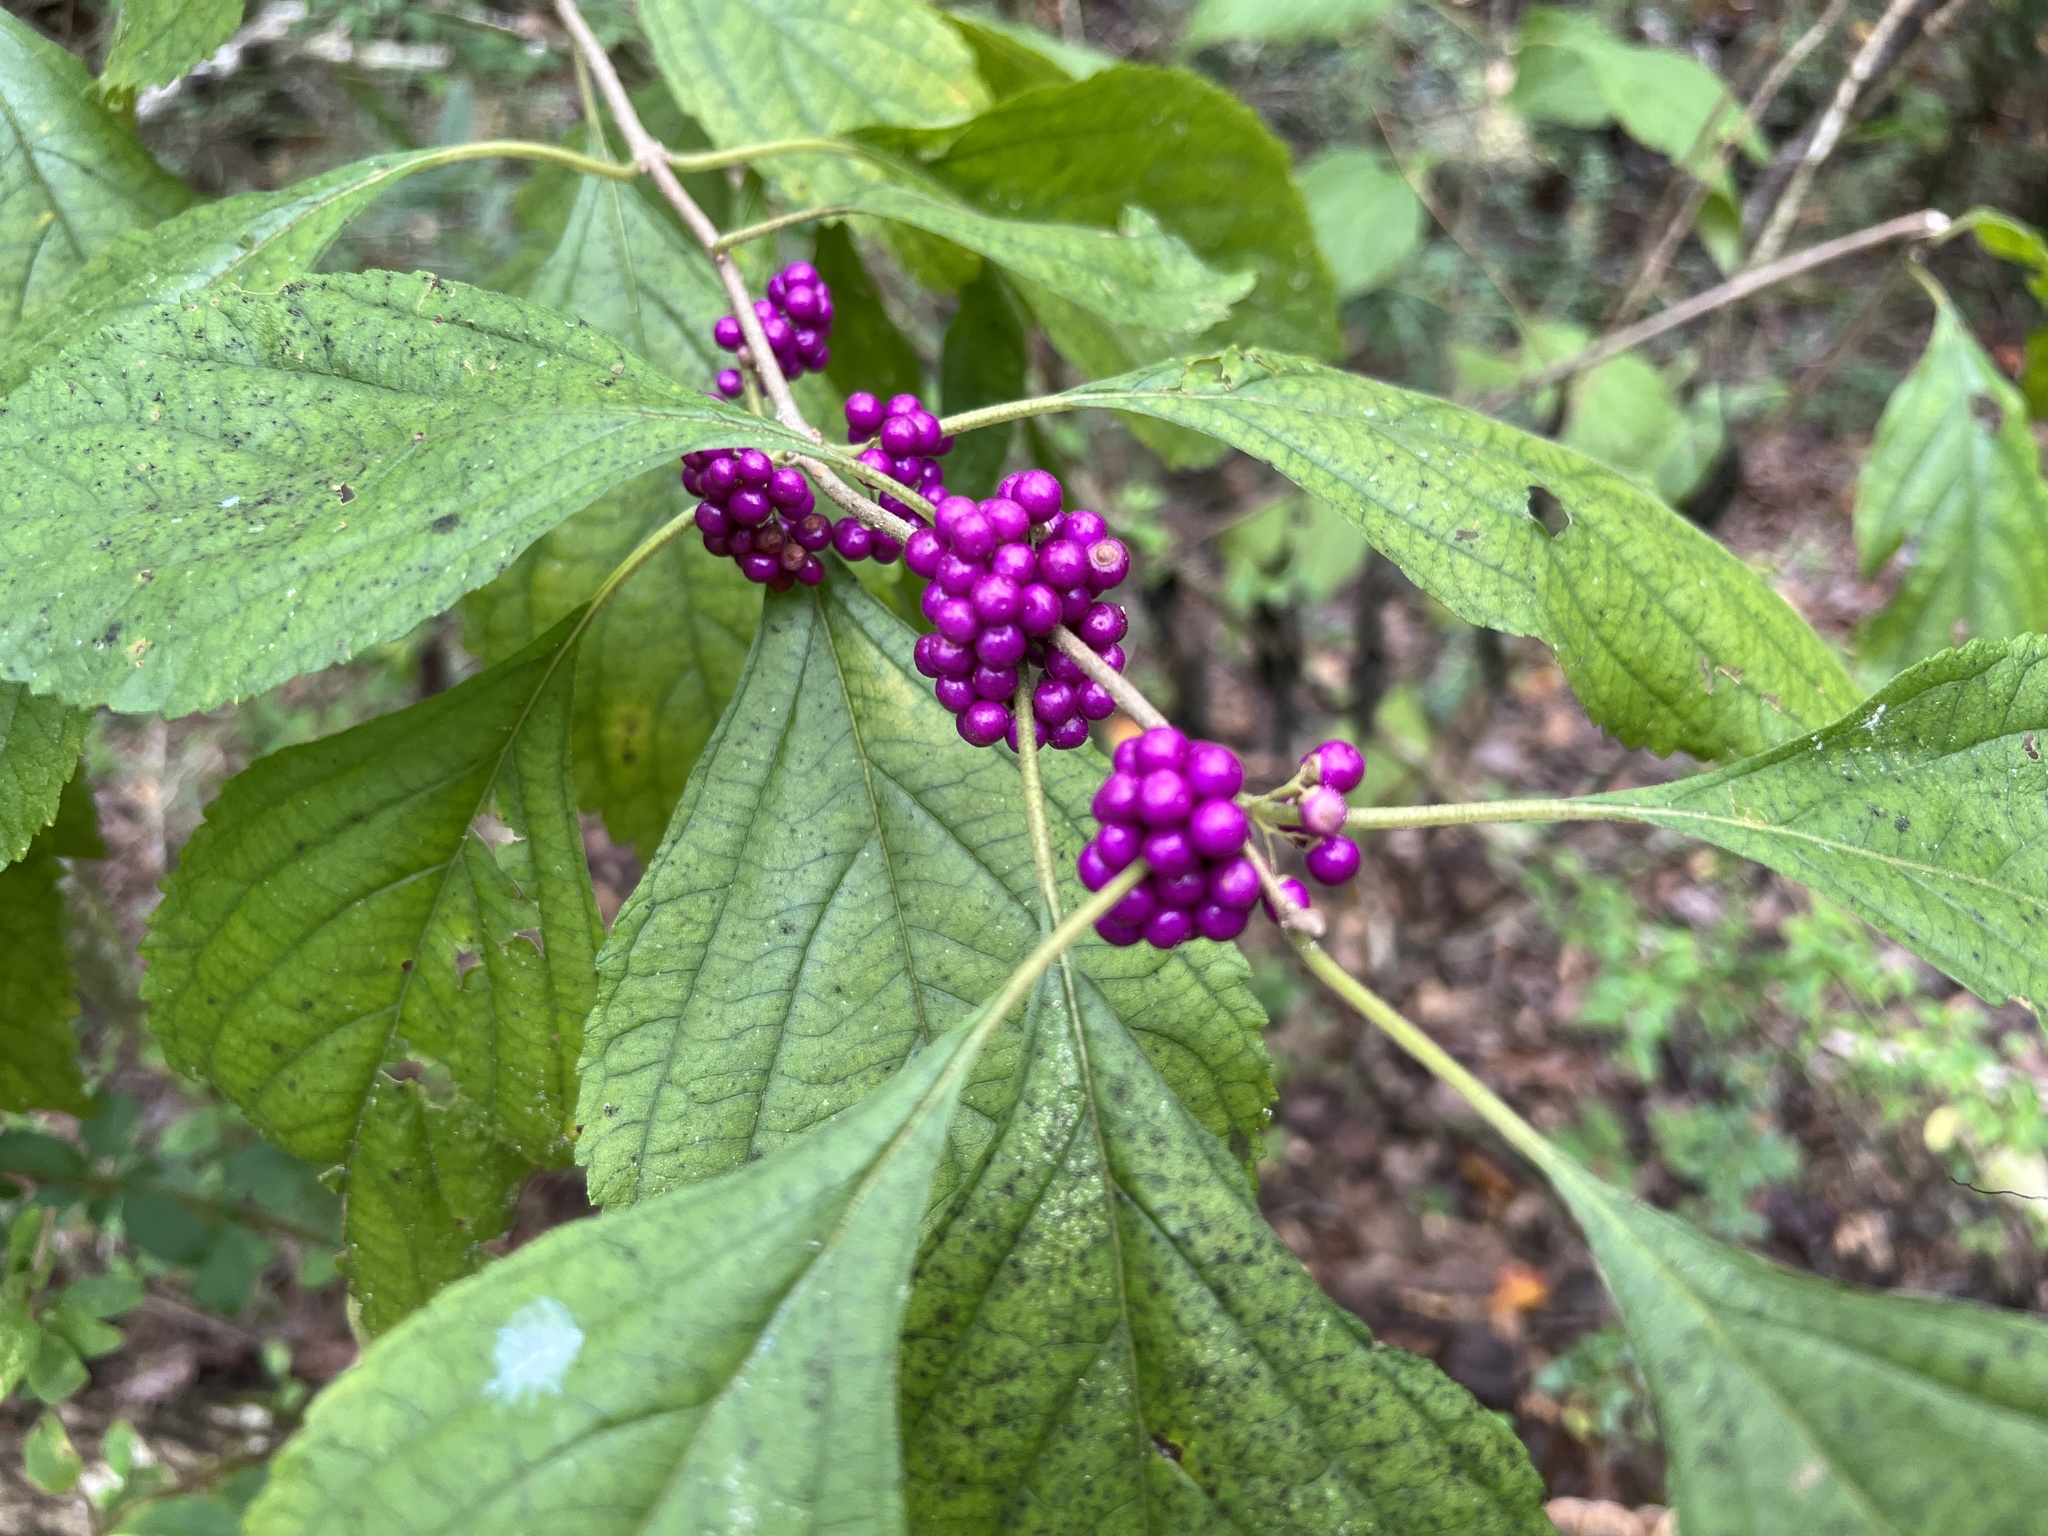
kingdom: Plantae
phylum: Tracheophyta
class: Magnoliopsida
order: Lamiales
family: Lamiaceae
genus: Callicarpa
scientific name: Callicarpa americana
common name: American beautyberry
